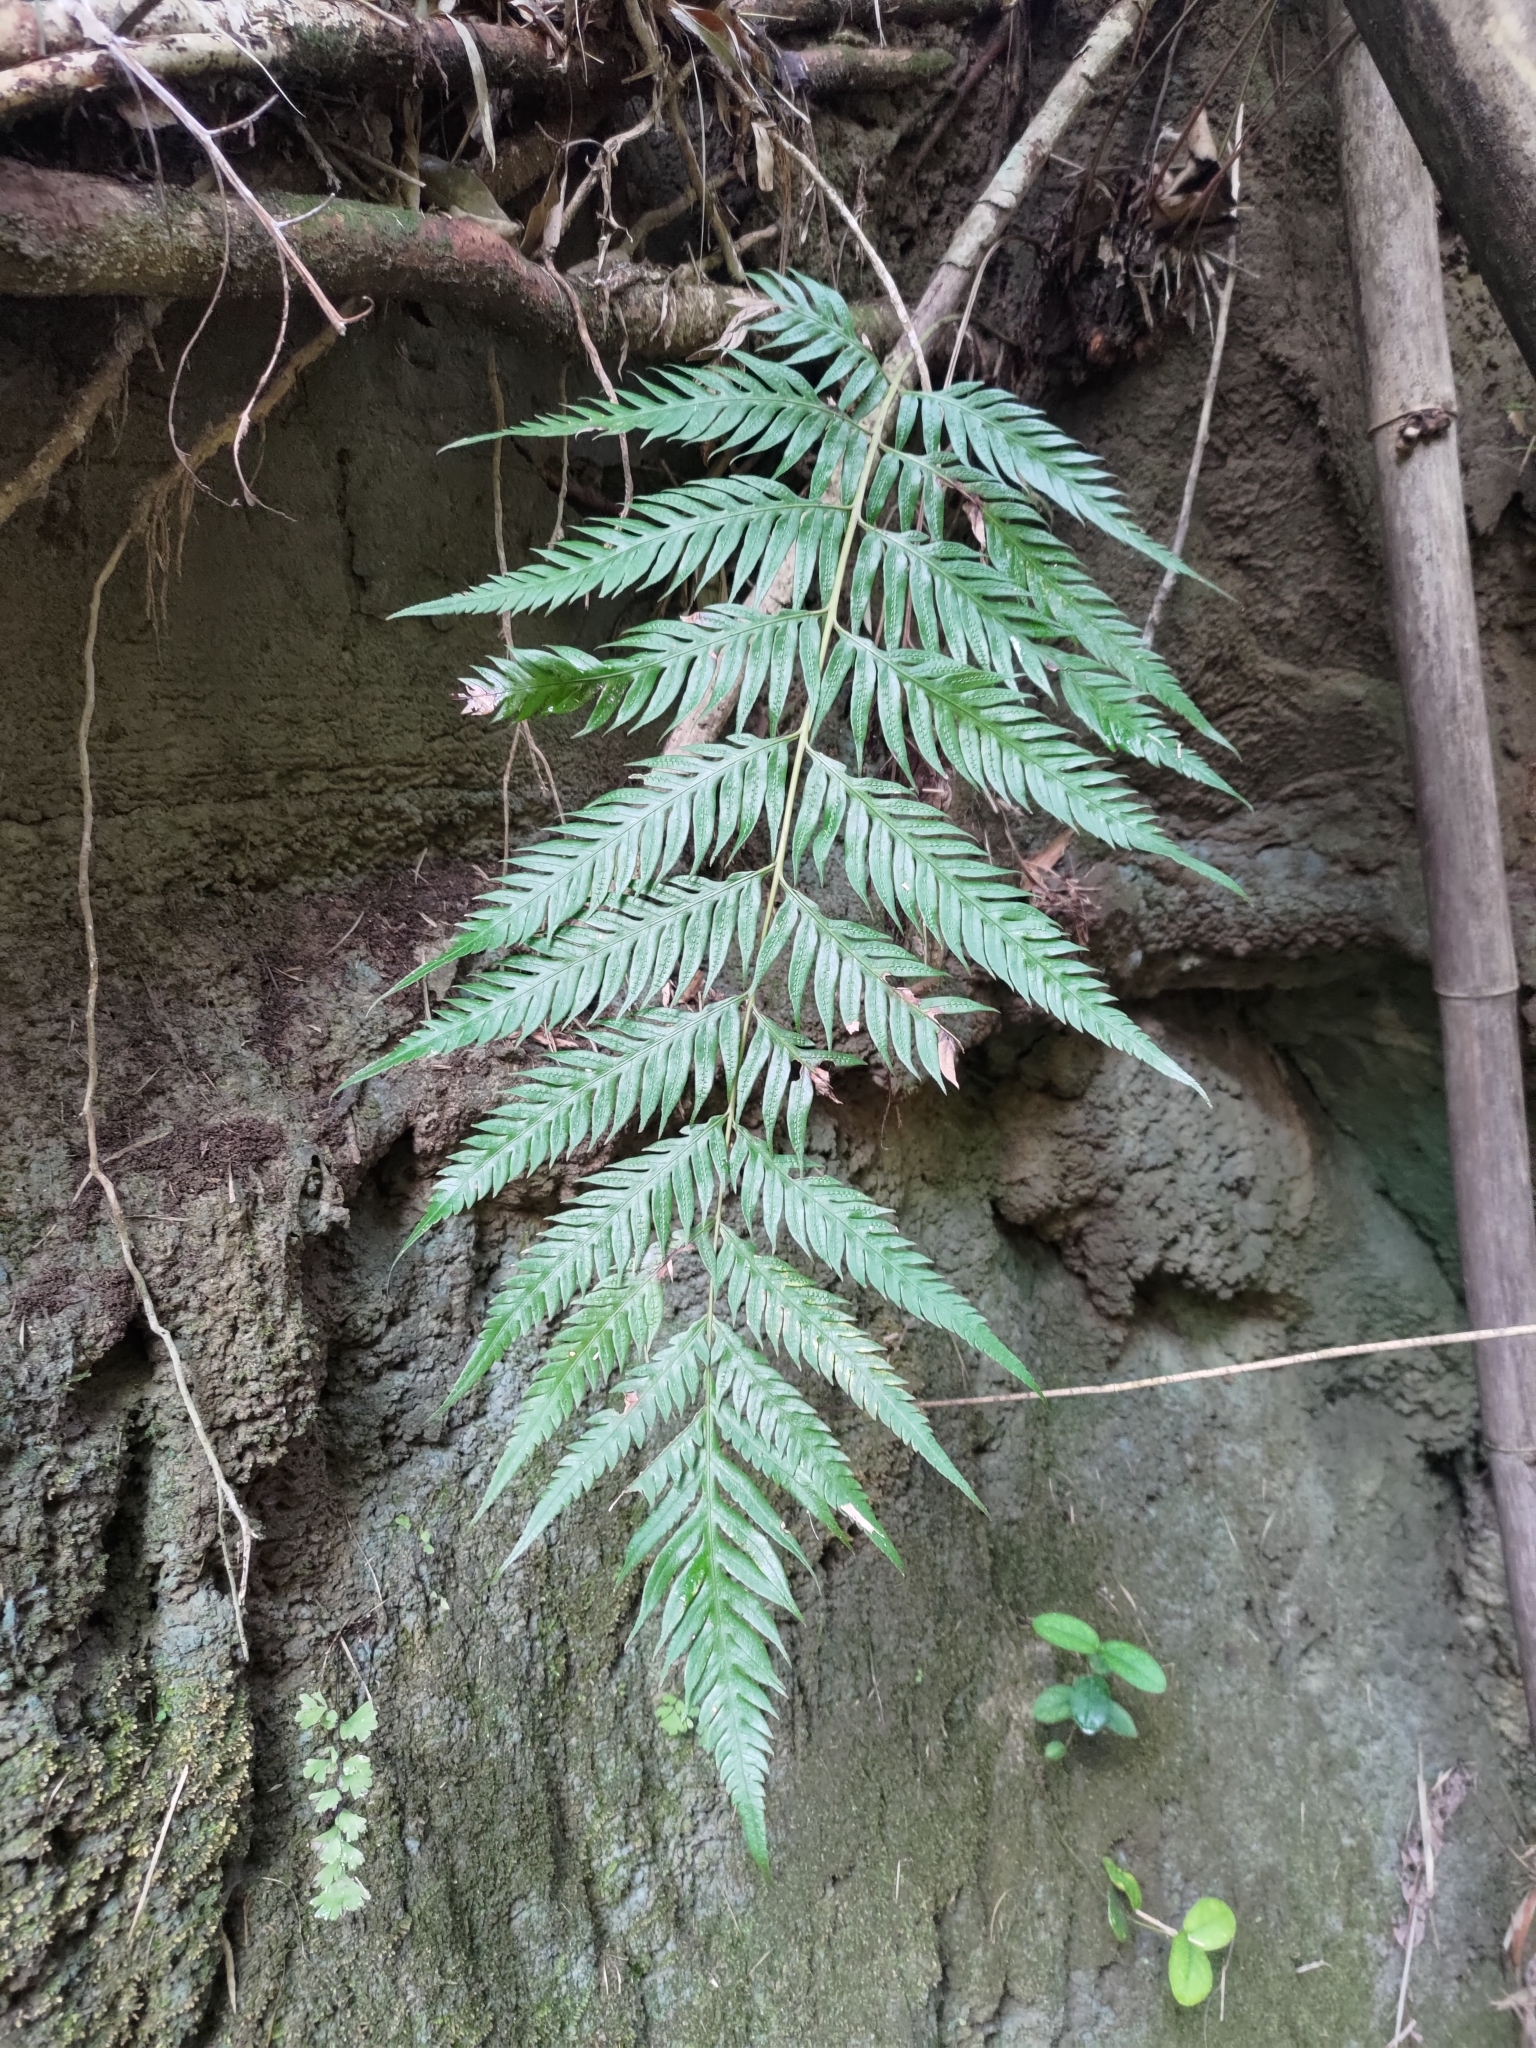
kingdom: Plantae
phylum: Tracheophyta
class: Polypodiopsida
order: Polypodiales
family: Blechnaceae
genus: Woodwardia
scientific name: Woodwardia prolifera
